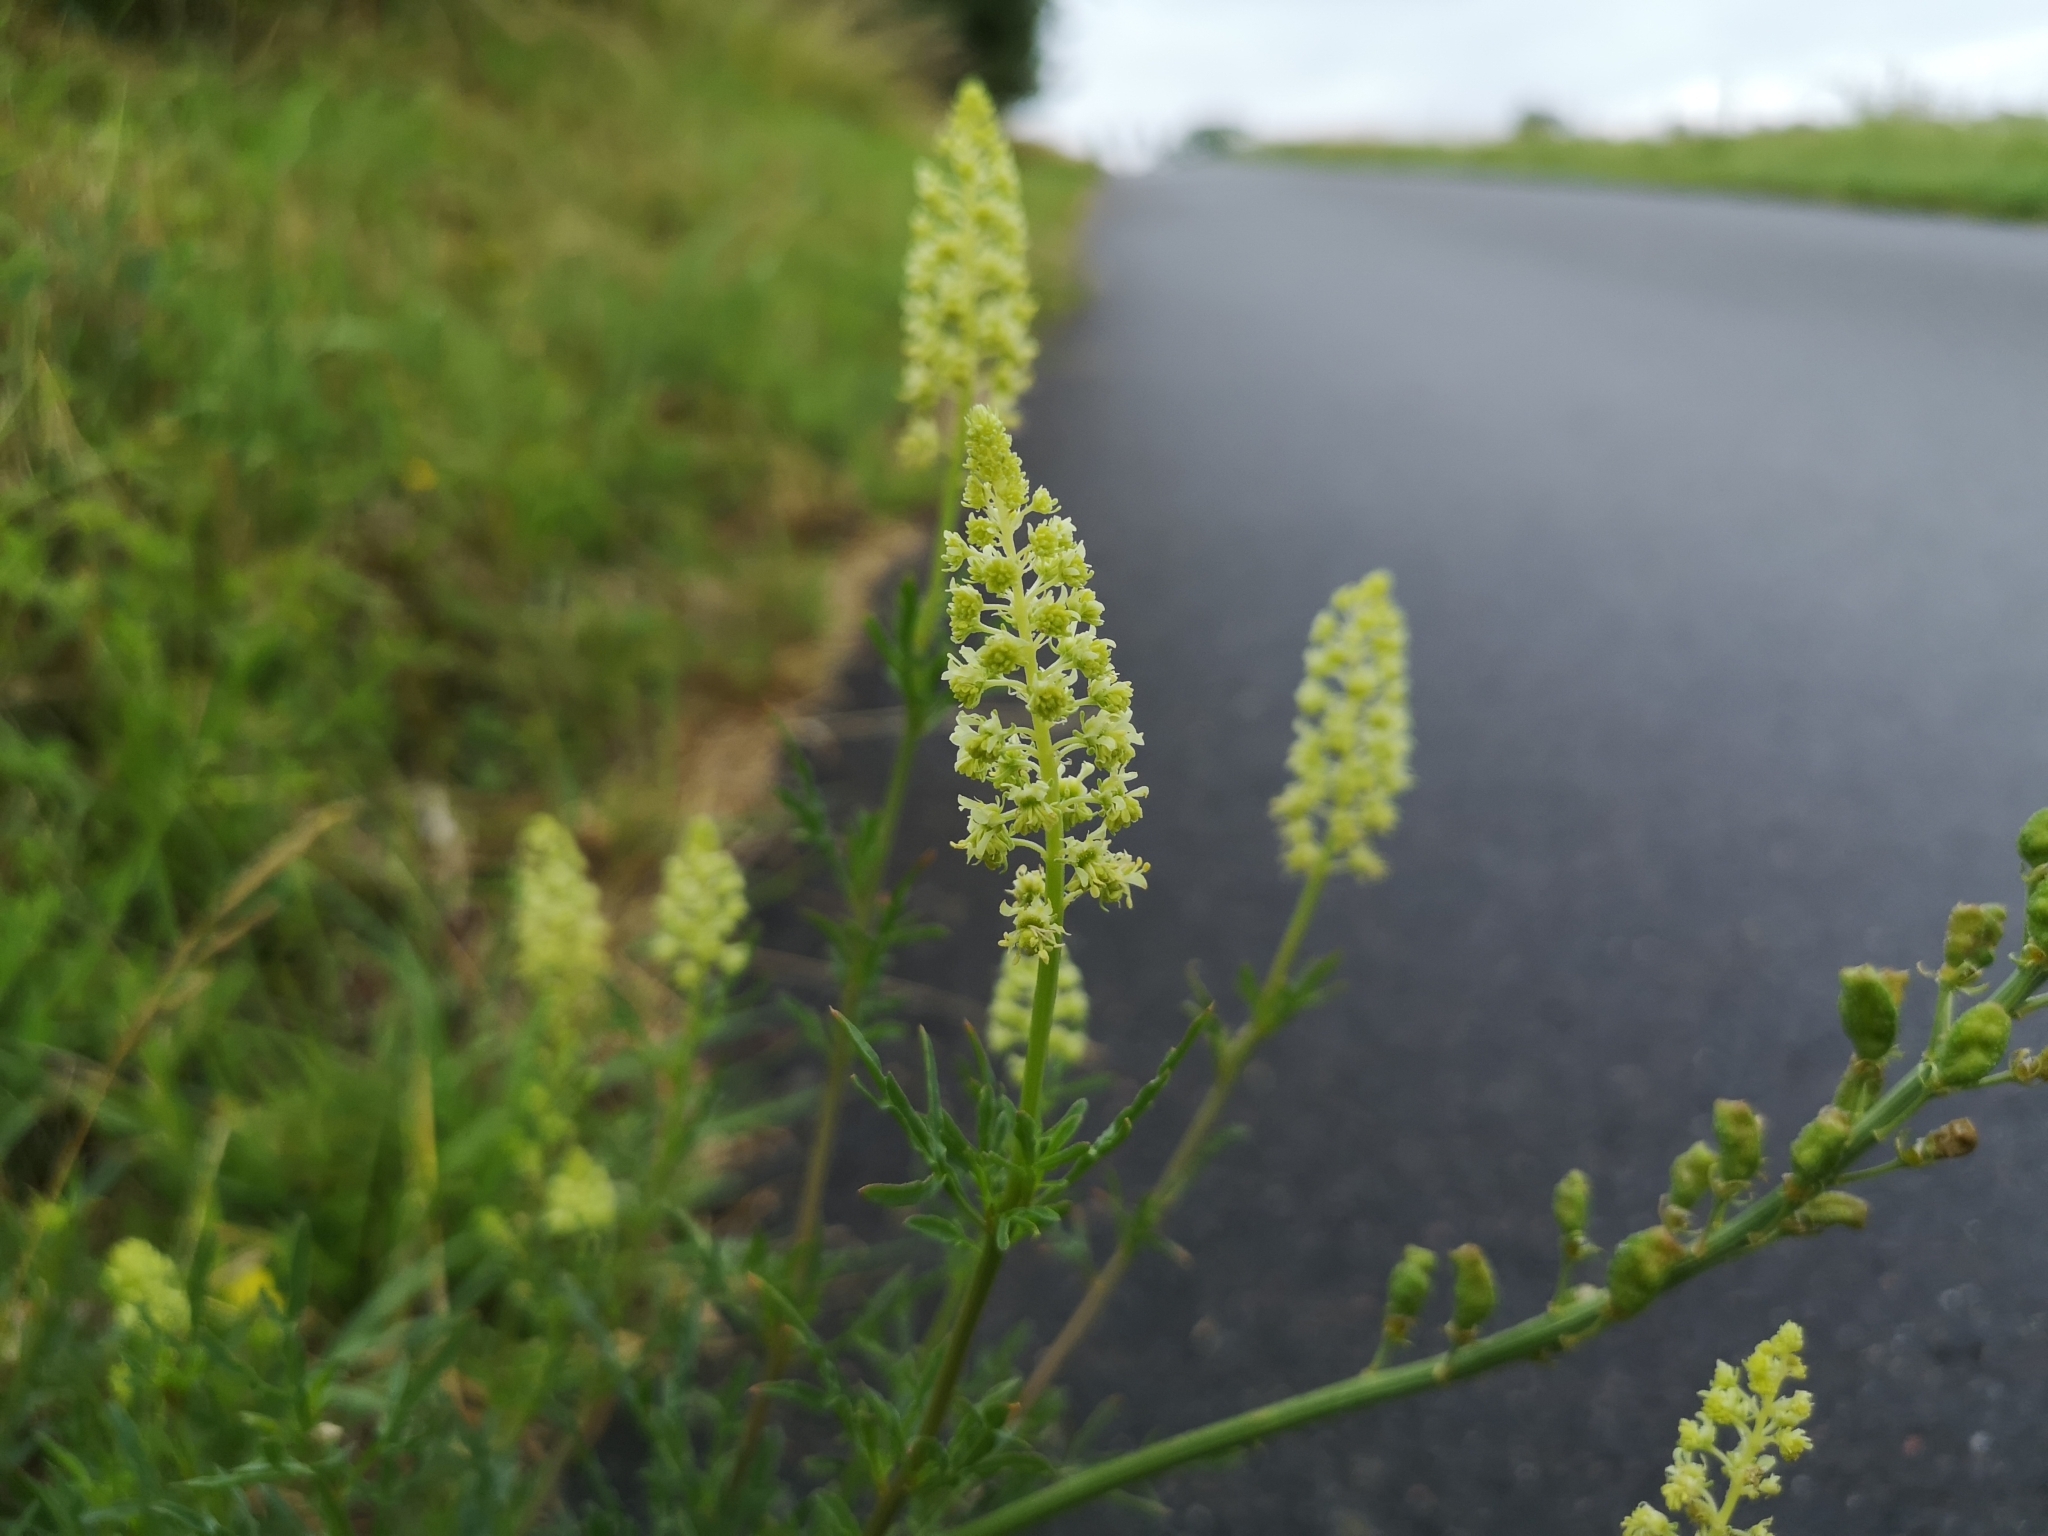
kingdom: Plantae
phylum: Tracheophyta
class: Magnoliopsida
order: Brassicales
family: Resedaceae
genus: Reseda
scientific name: Reseda lutea
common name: Wild mignonette
